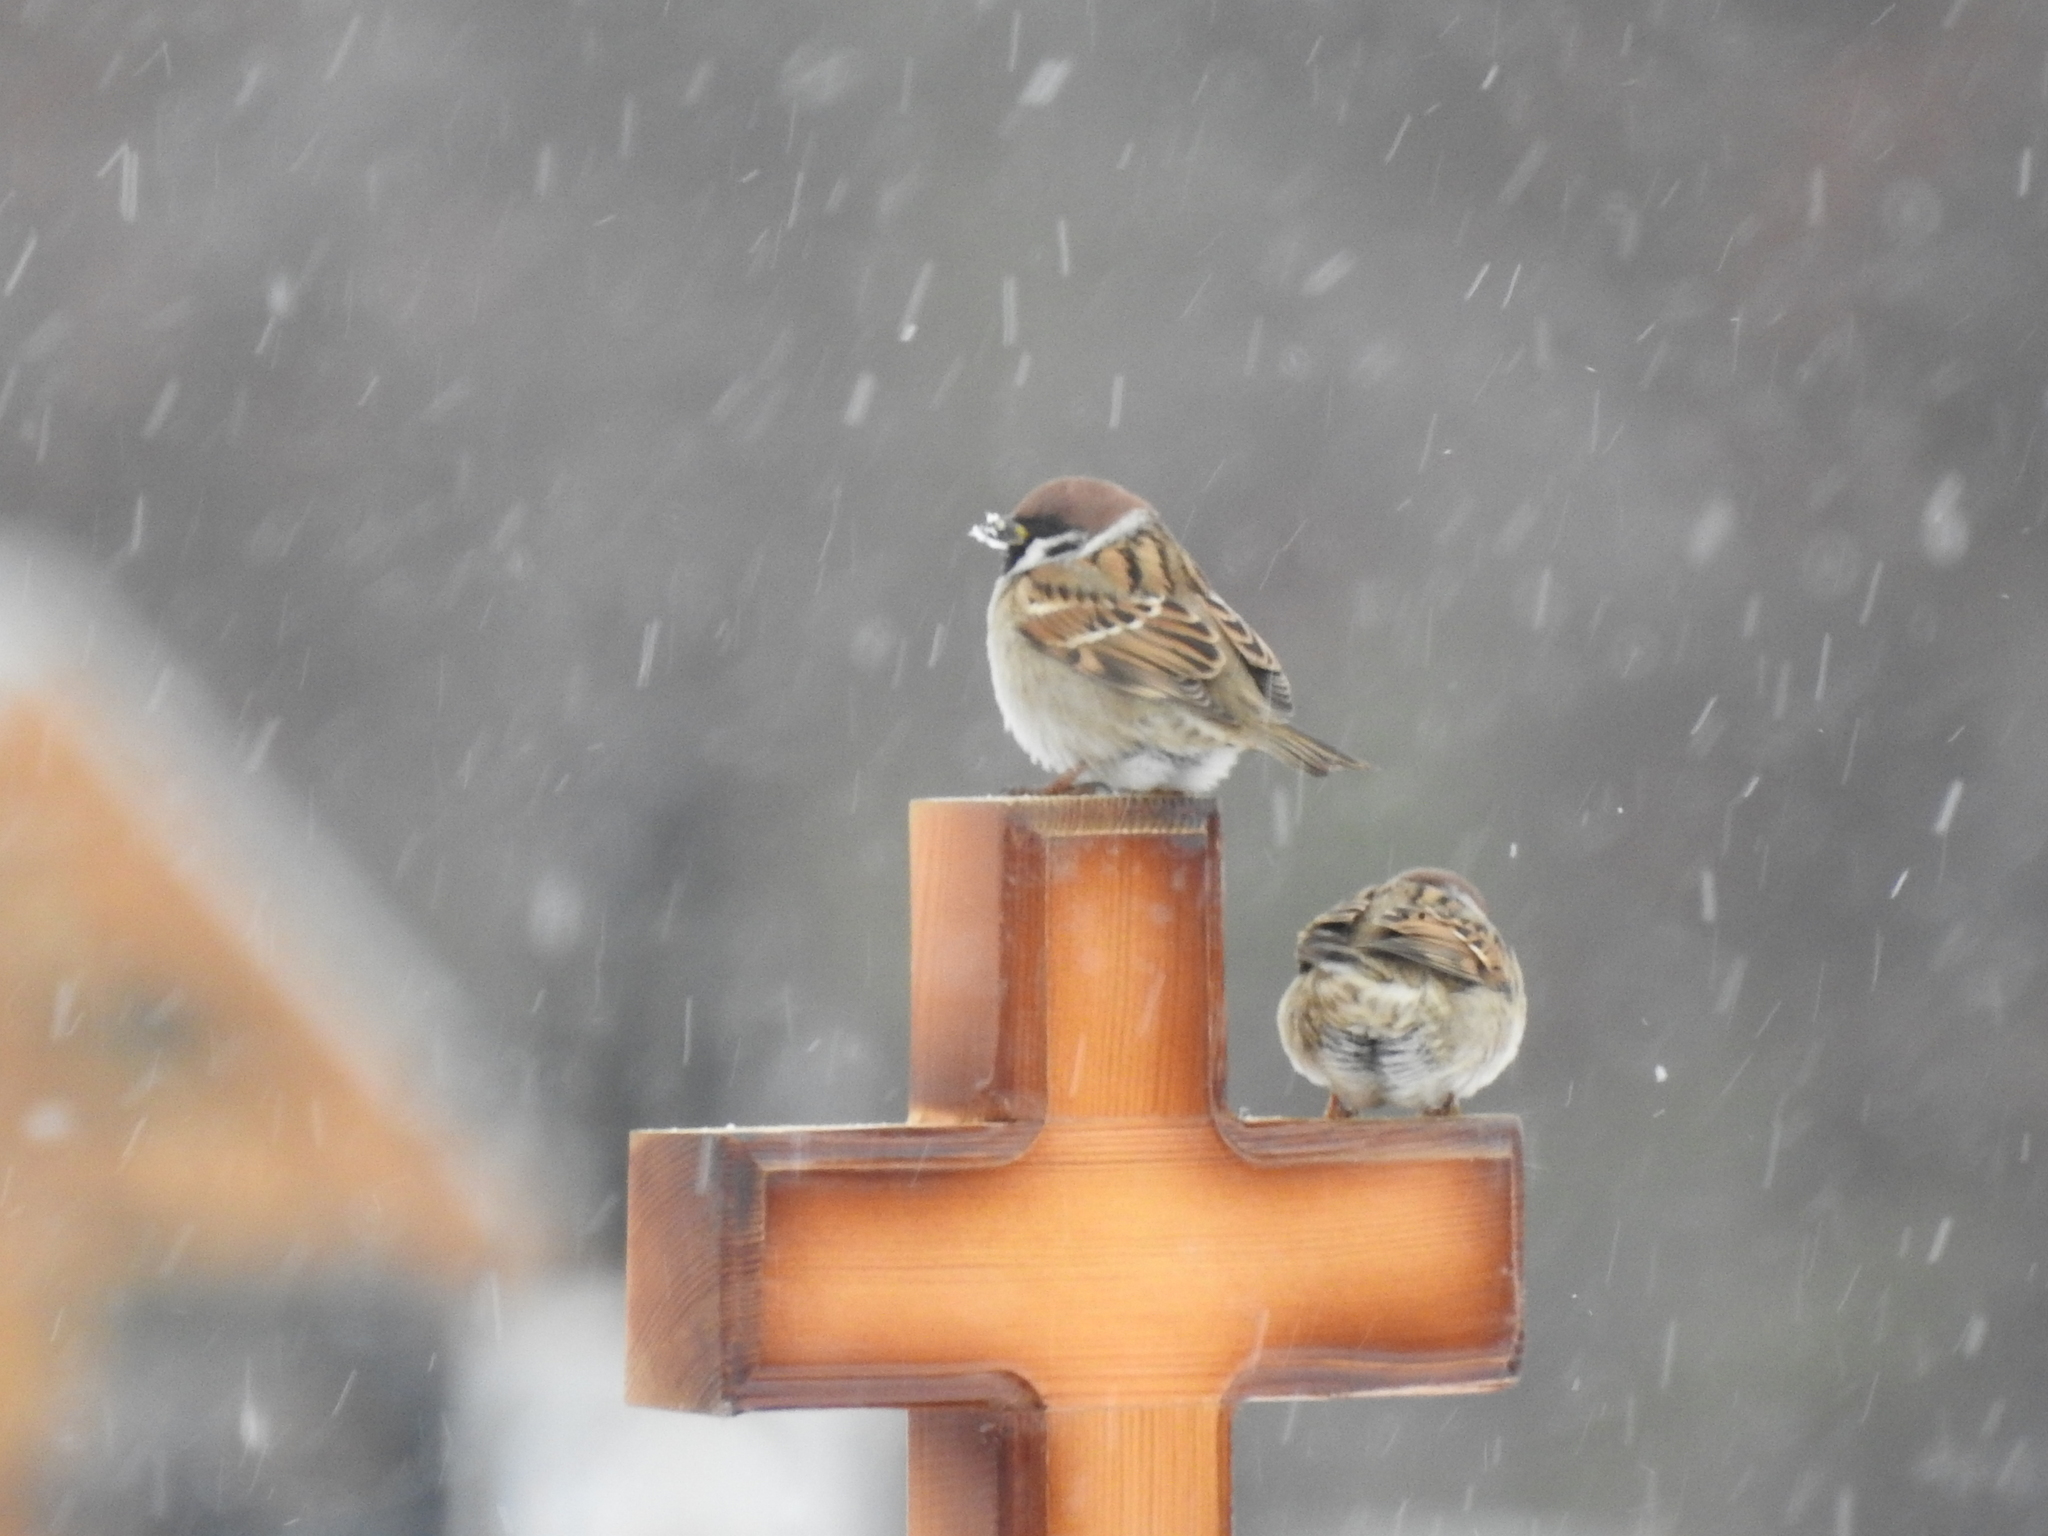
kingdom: Animalia
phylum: Chordata
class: Aves
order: Passeriformes
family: Passeridae
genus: Passer
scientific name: Passer montanus
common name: Eurasian tree sparrow
